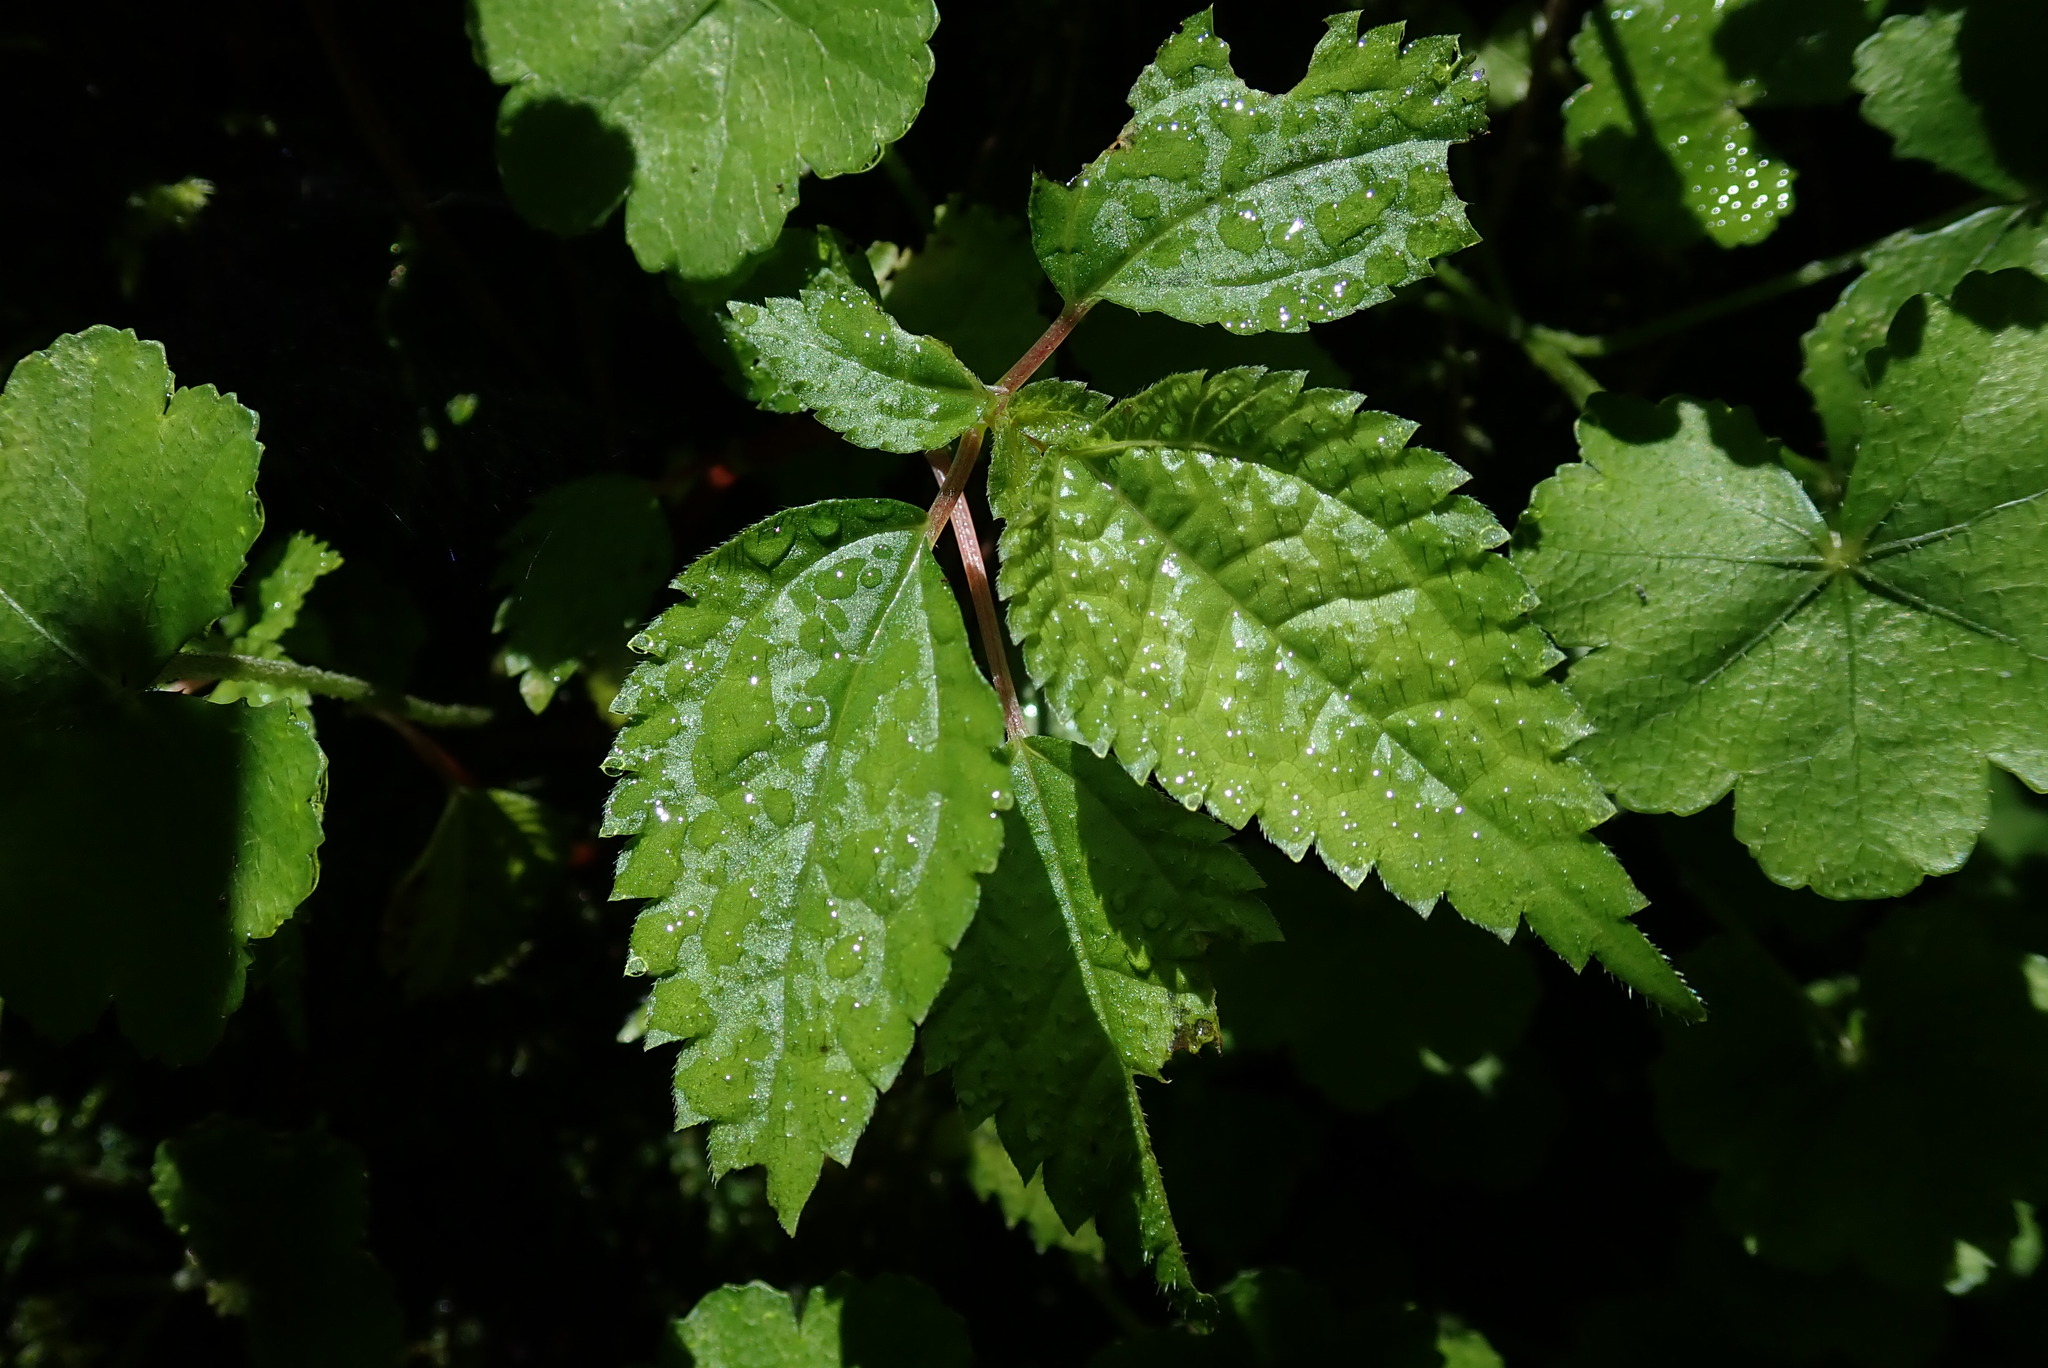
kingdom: Plantae
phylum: Tracheophyta
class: Magnoliopsida
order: Rosales
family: Urticaceae
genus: Lecanthus
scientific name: Lecanthus peduncularis
